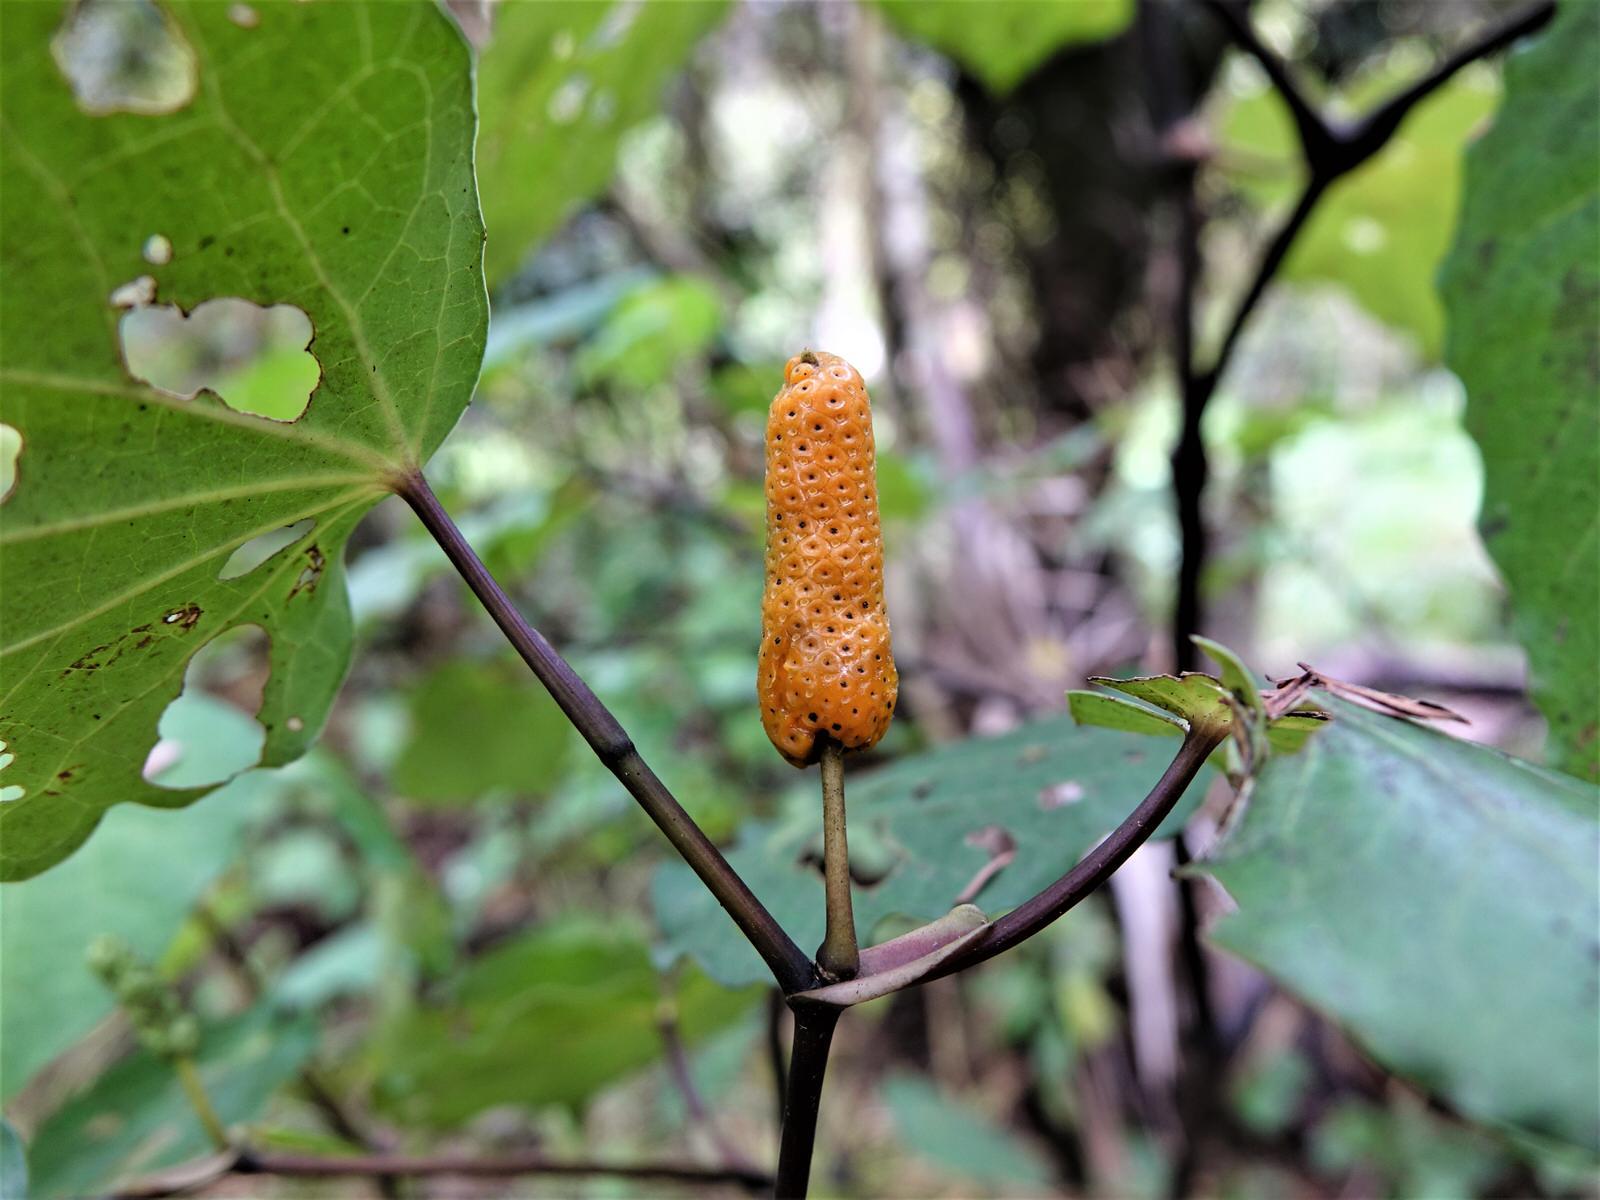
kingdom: Plantae
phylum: Tracheophyta
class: Magnoliopsida
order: Piperales
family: Piperaceae
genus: Macropiper
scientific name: Macropiper excelsum
